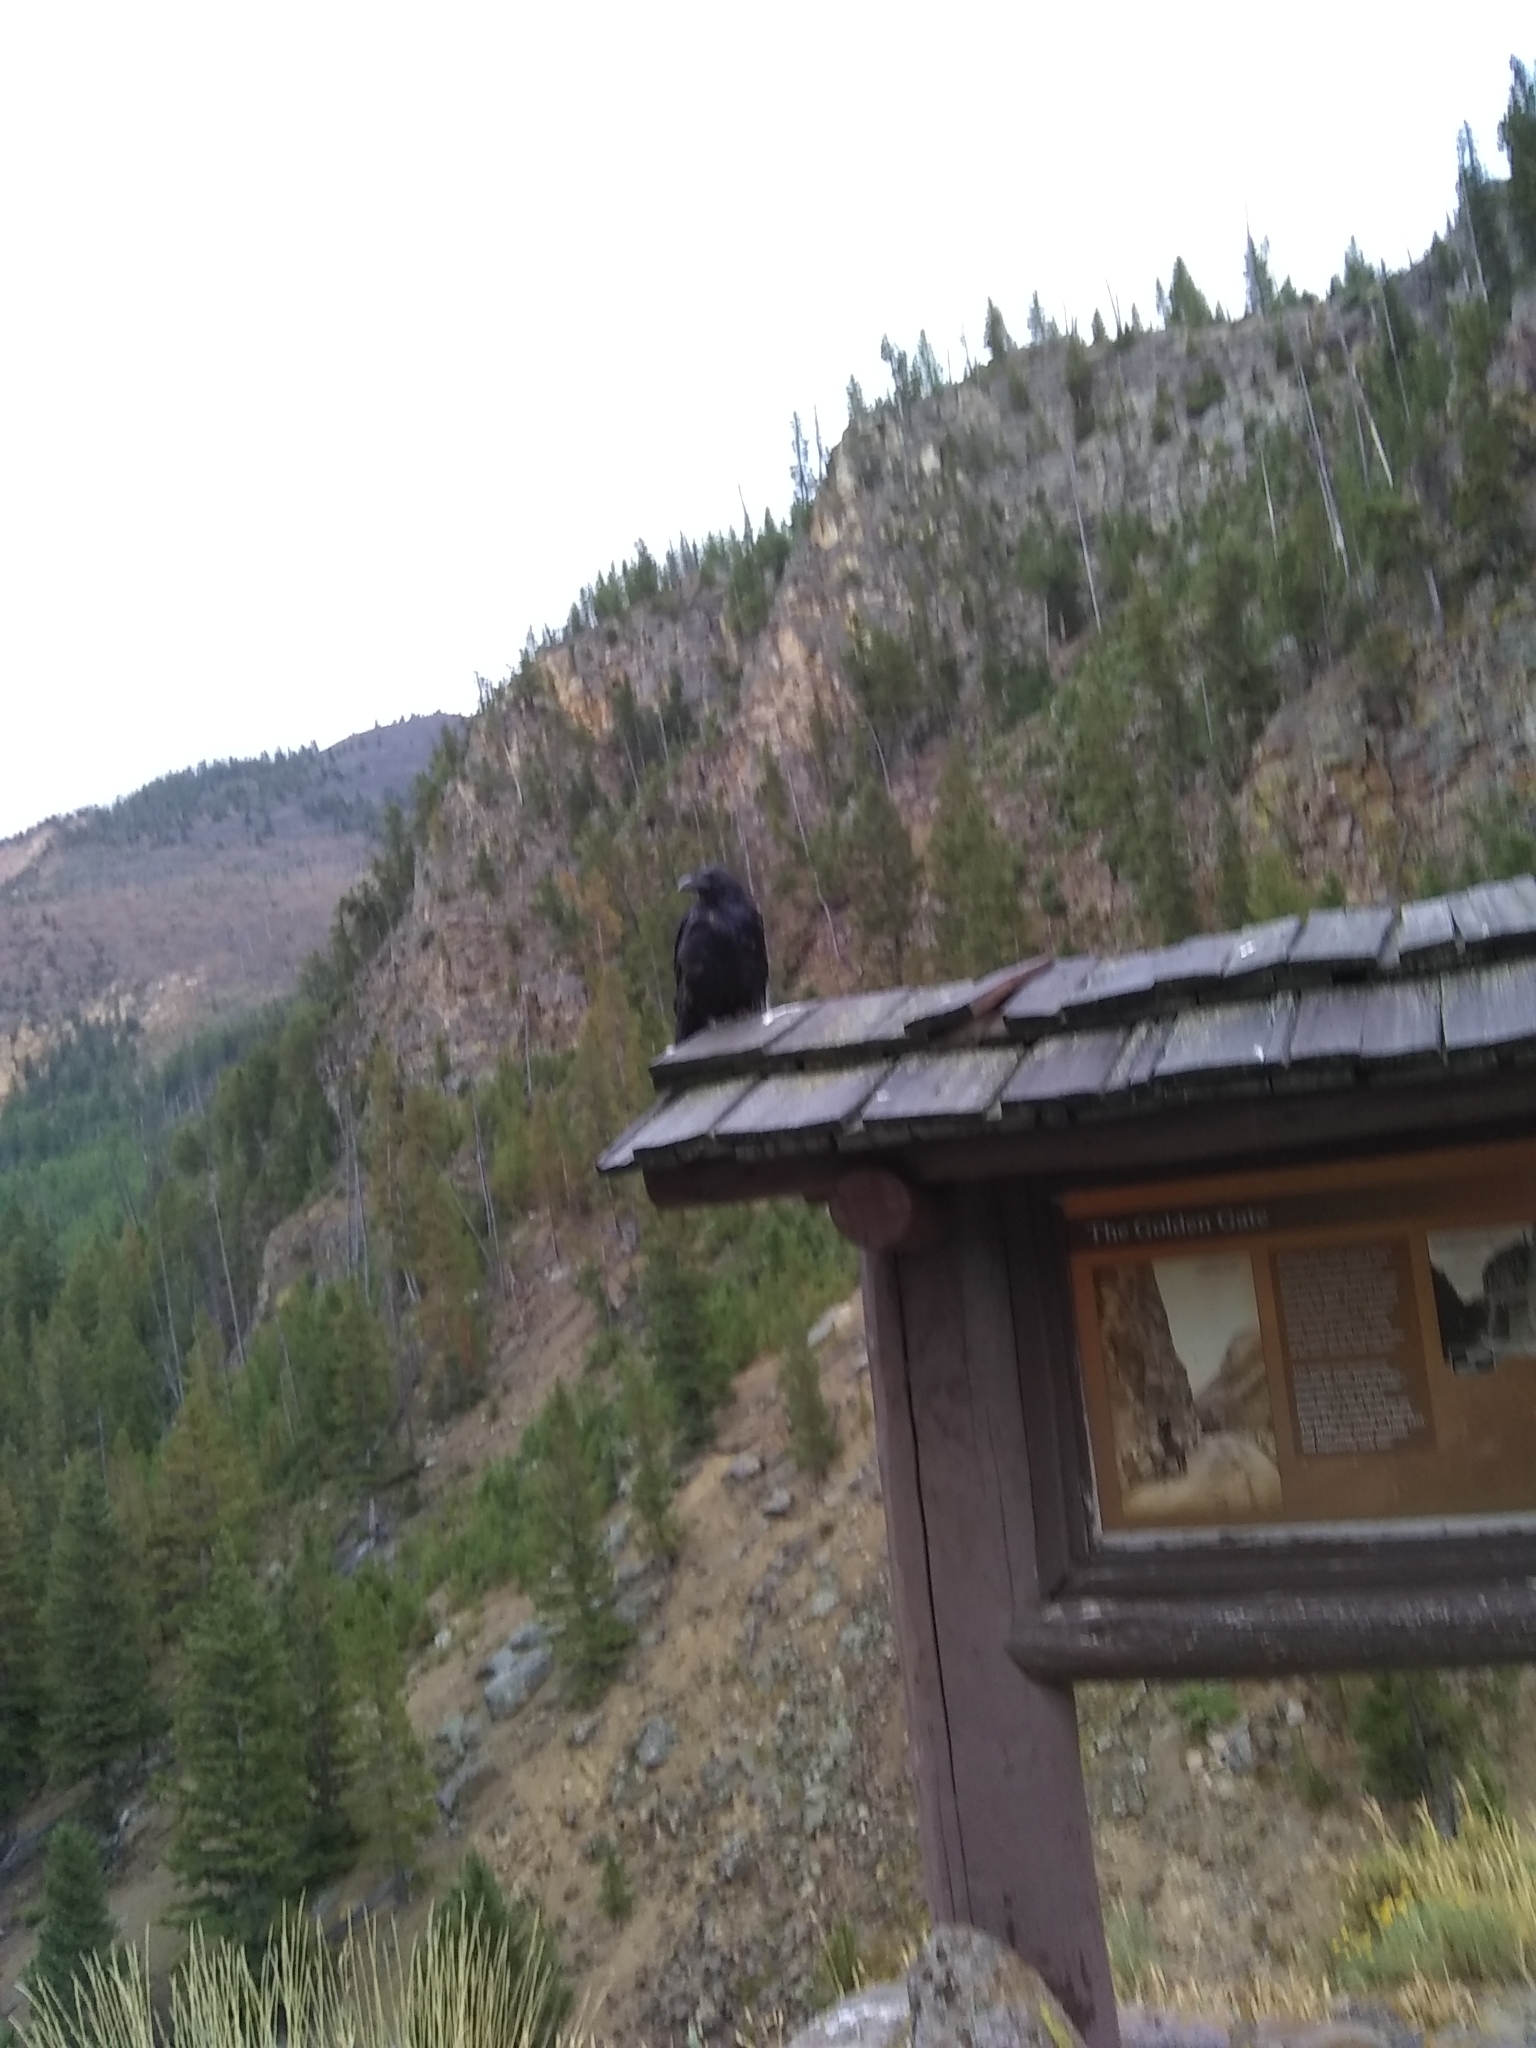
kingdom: Animalia
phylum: Chordata
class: Aves
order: Passeriformes
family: Corvidae
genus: Corvus
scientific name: Corvus corax
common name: Common raven
